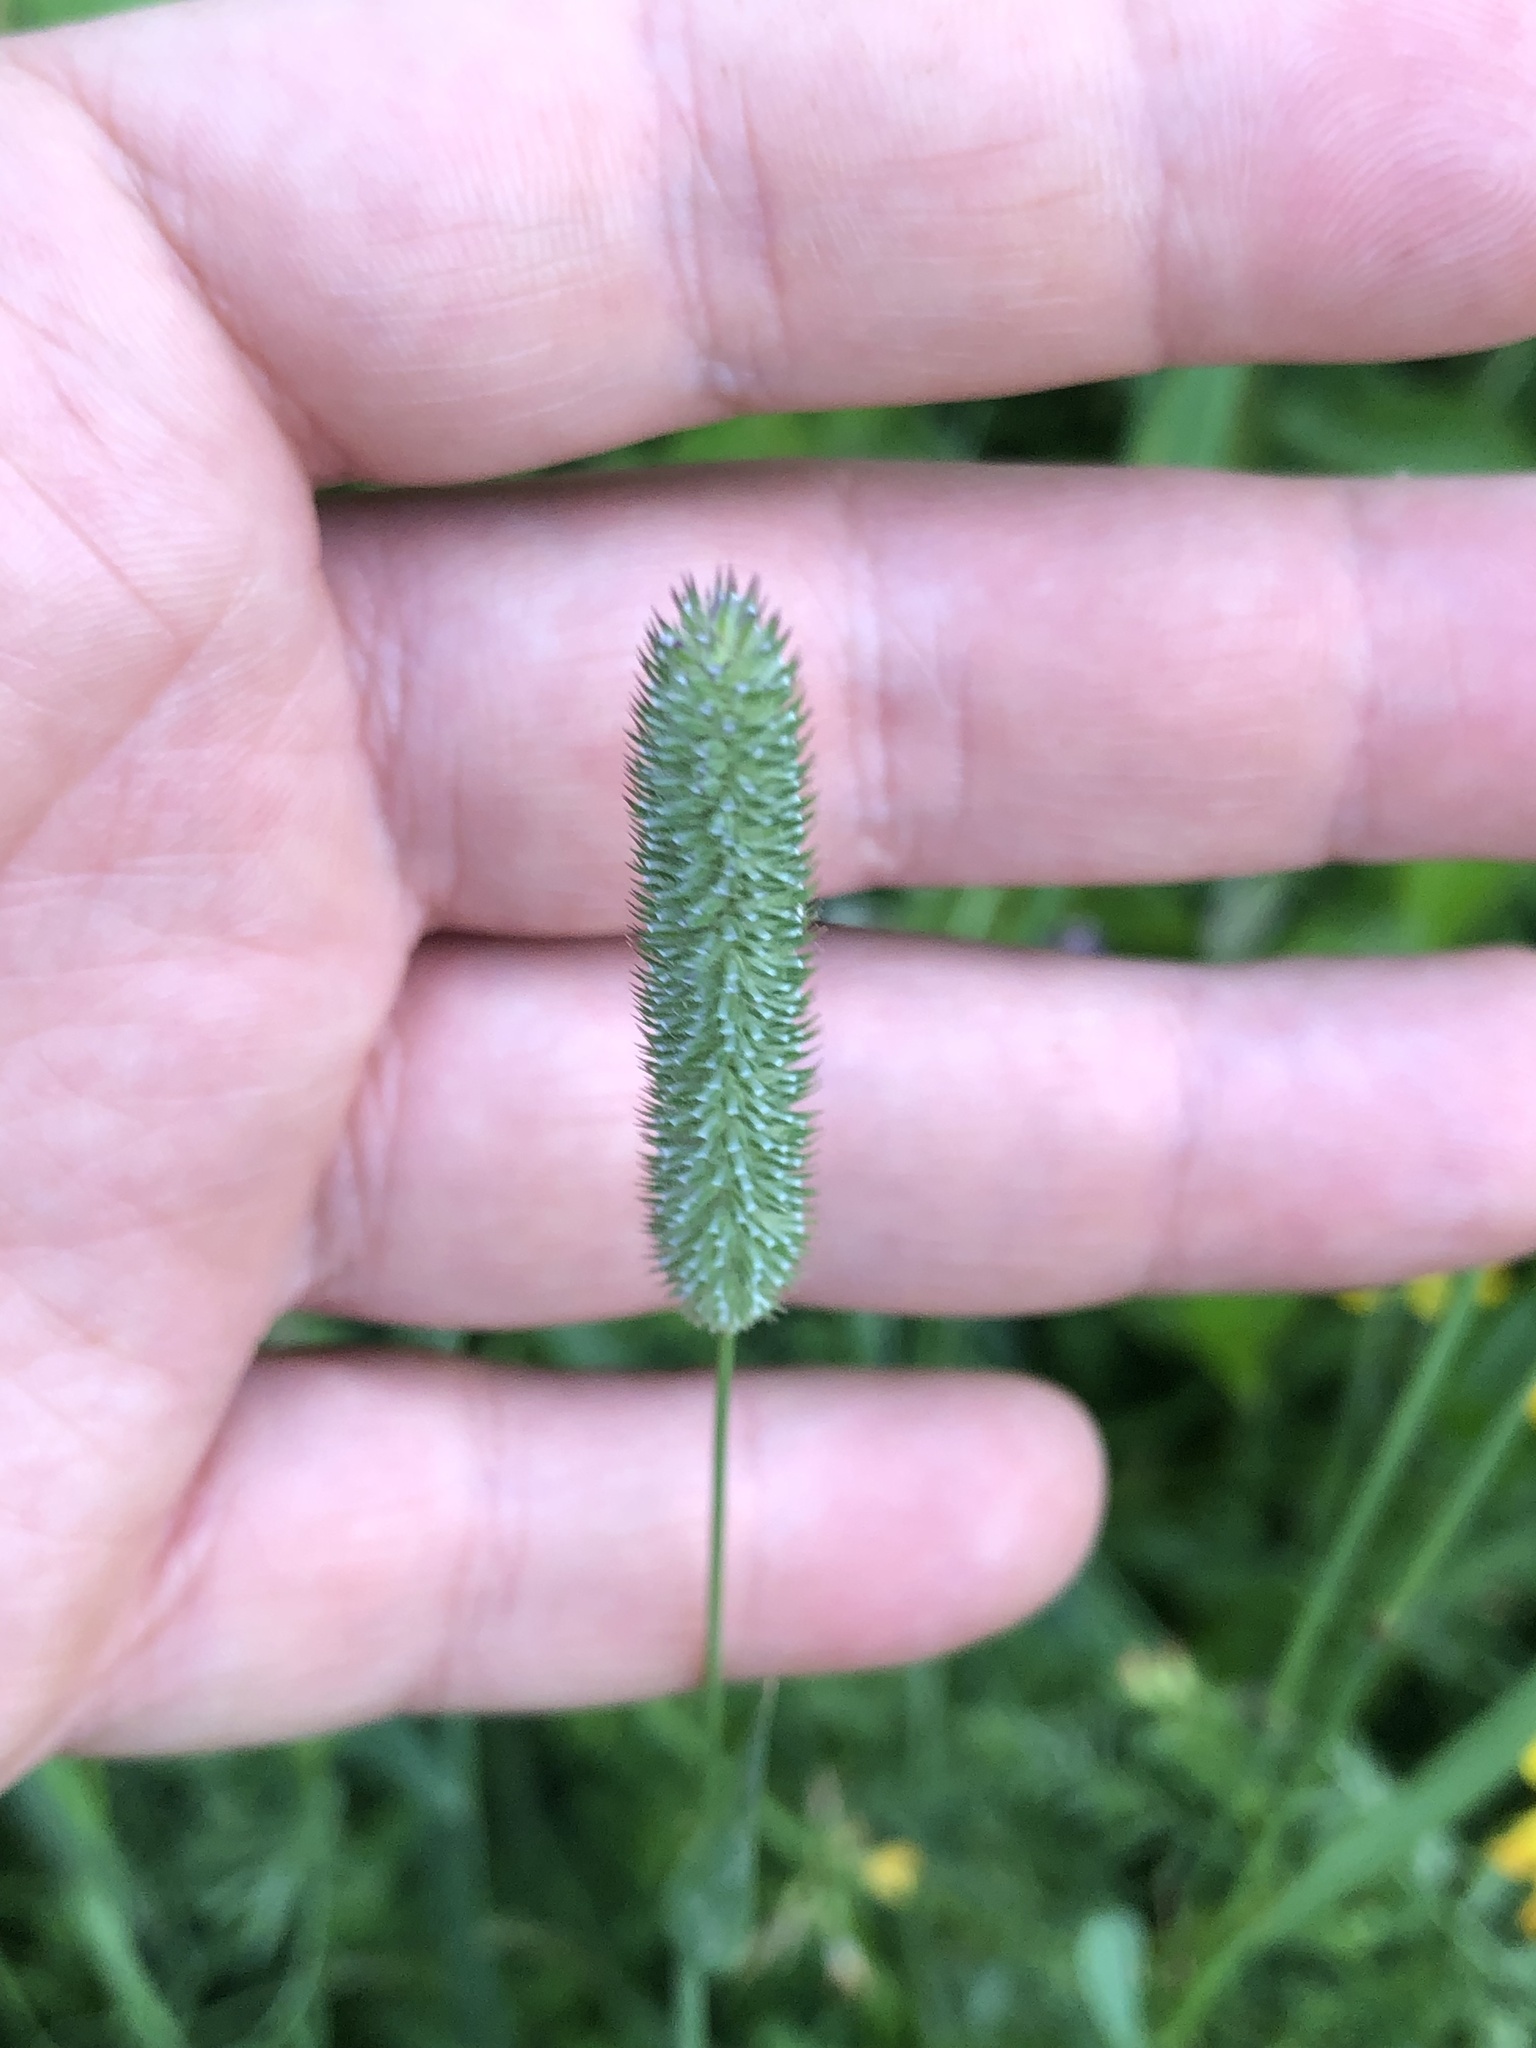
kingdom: Plantae
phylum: Tracheophyta
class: Liliopsida
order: Poales
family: Poaceae
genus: Phleum
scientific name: Phleum pratense
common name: Timothy grass
